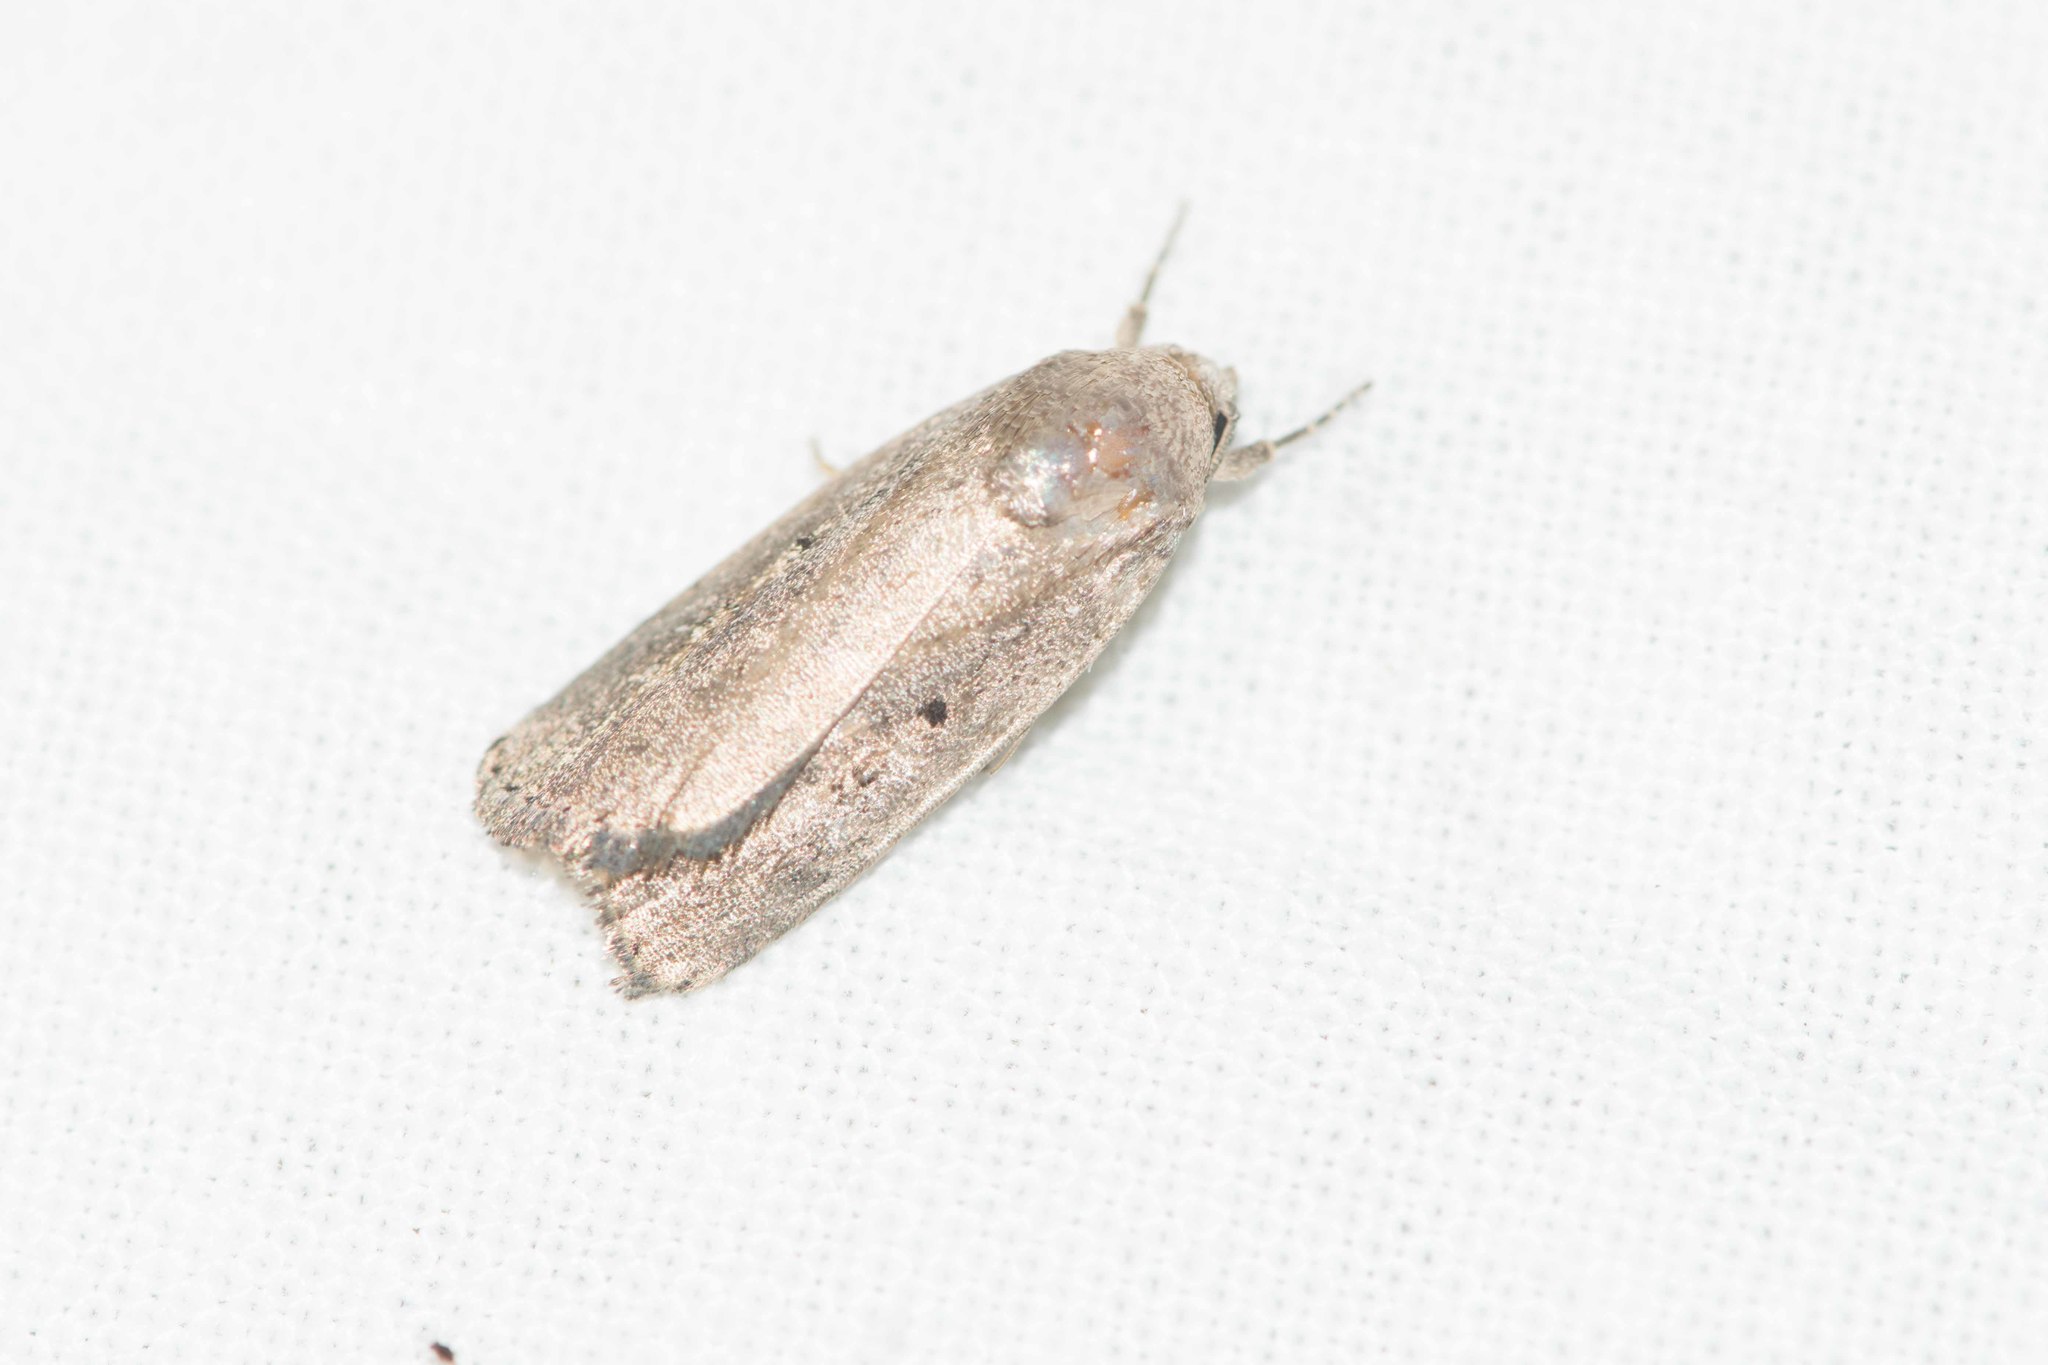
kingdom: Animalia
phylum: Arthropoda
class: Insecta
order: Lepidoptera
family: Noctuidae
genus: Athetis
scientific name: Athetis hospes
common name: Porter's rustic
